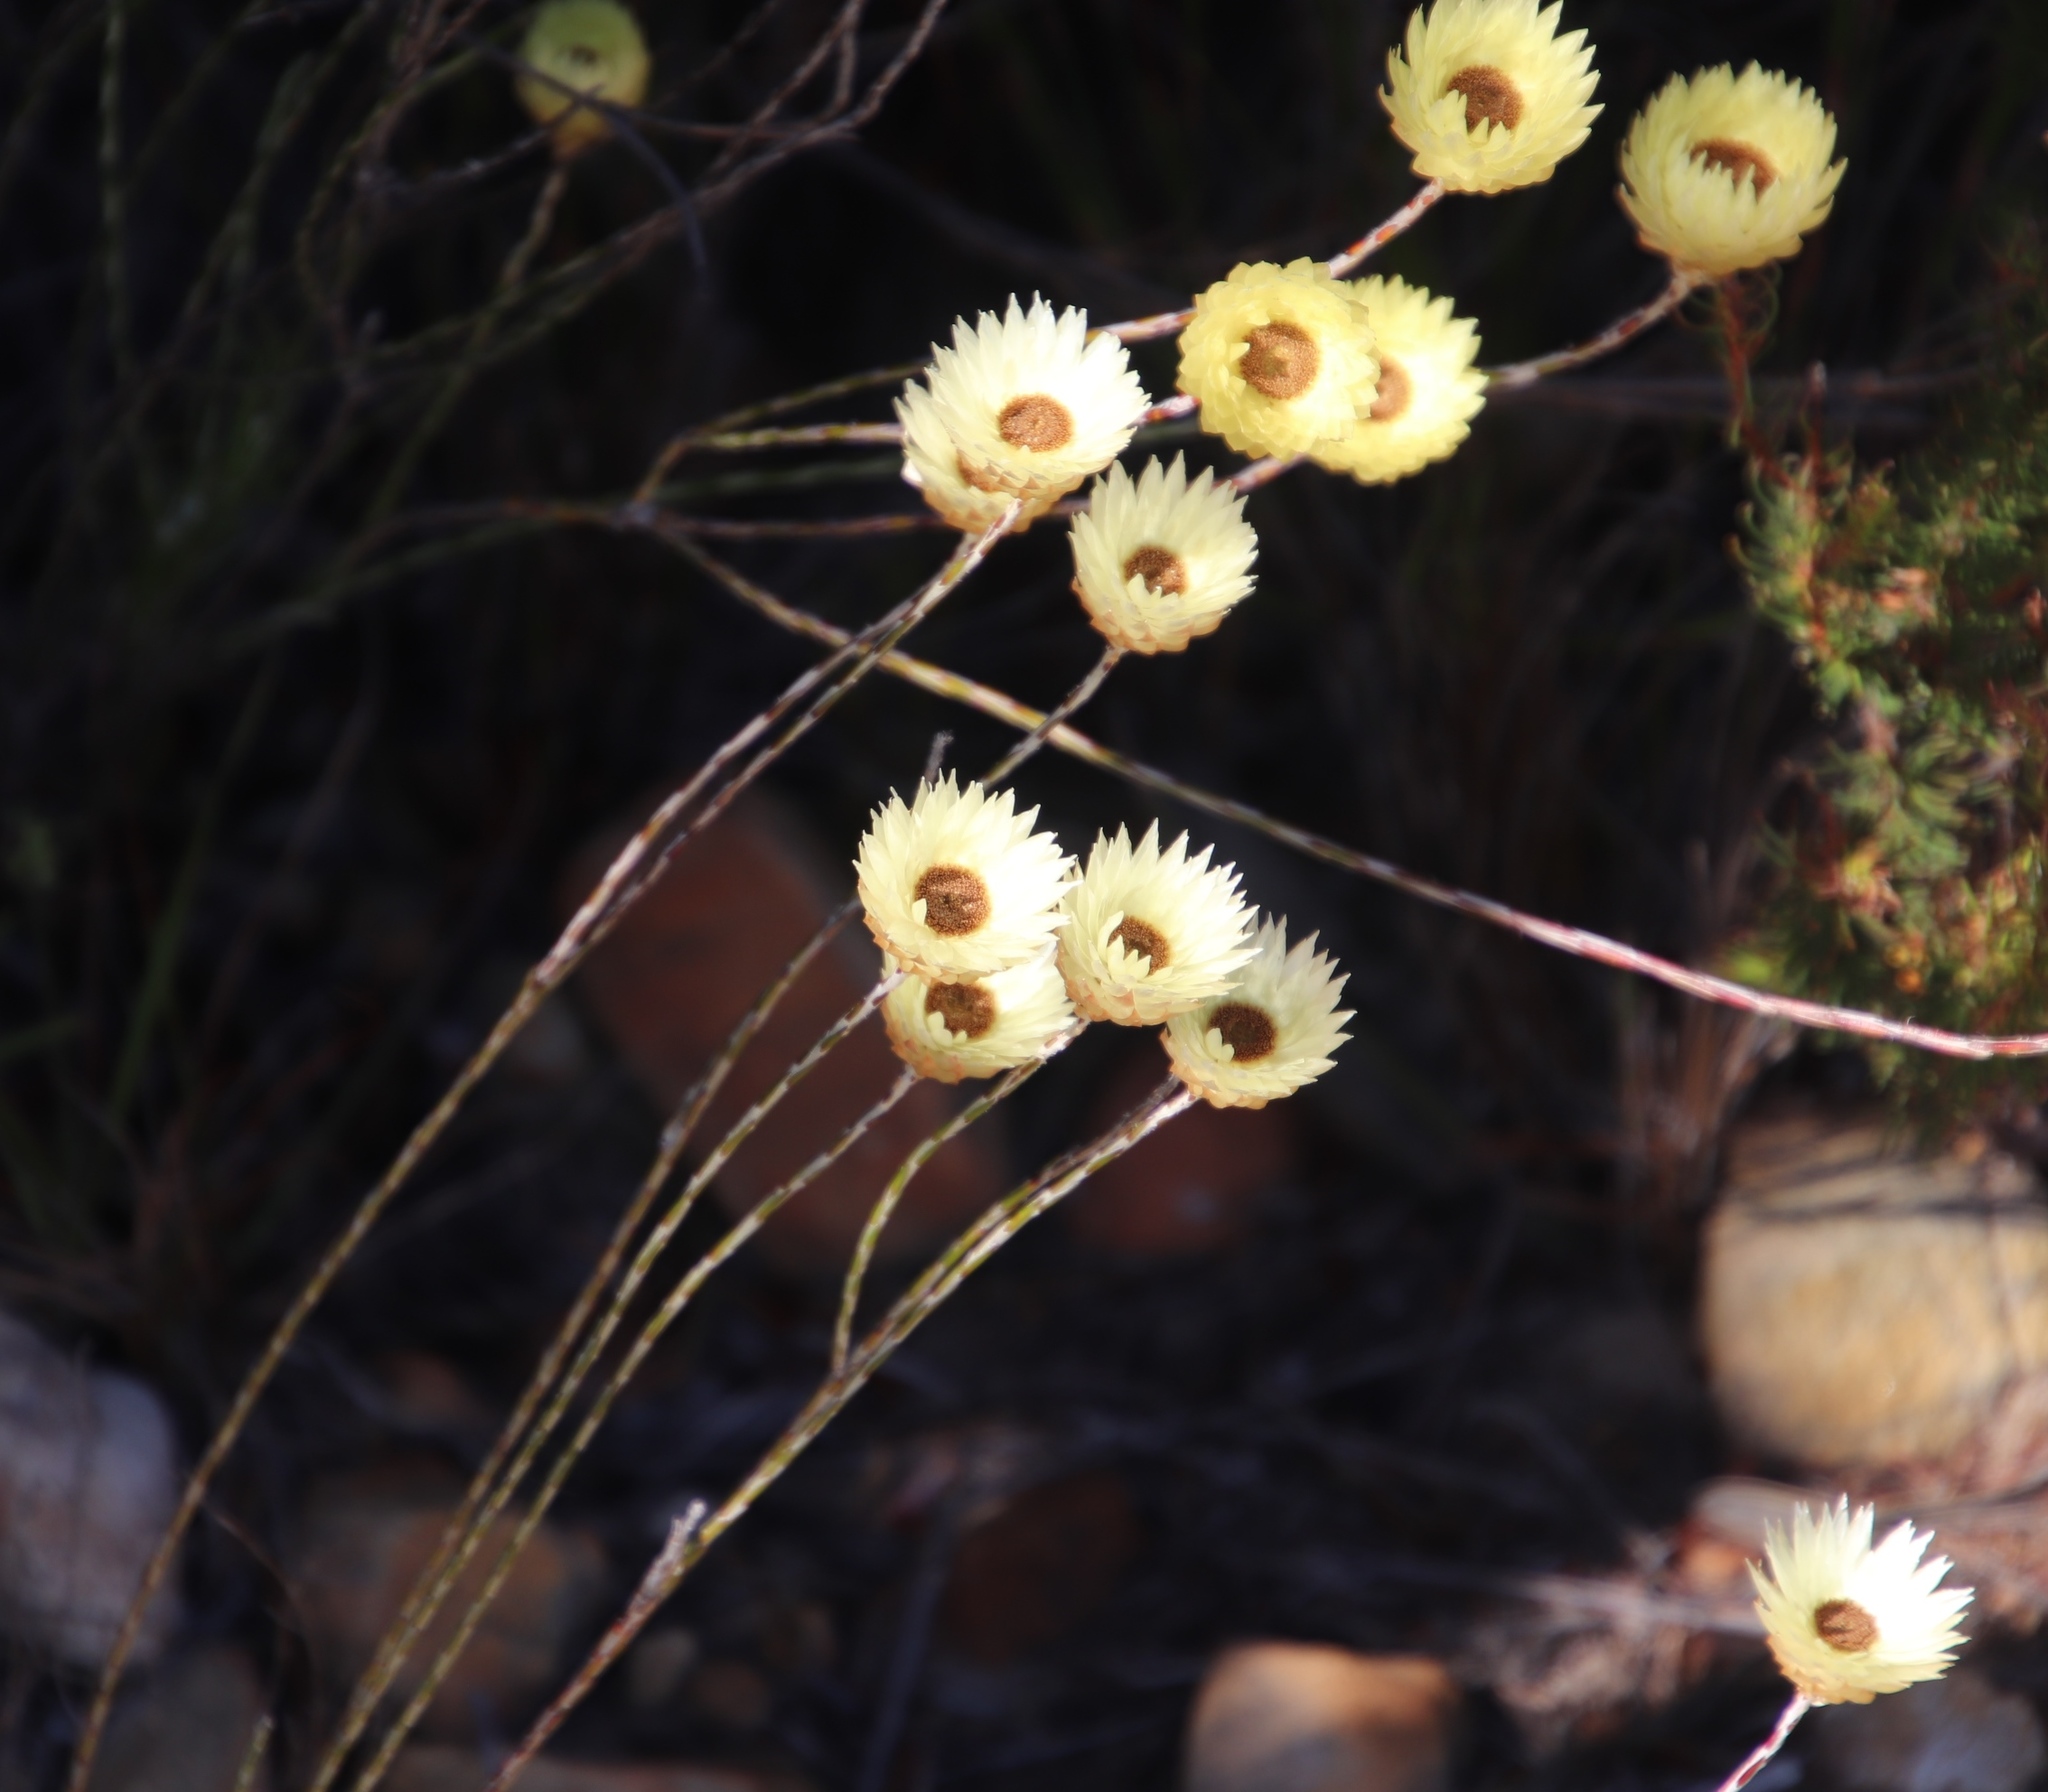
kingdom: Plantae
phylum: Tracheophyta
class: Magnoliopsida
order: Asterales
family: Asteraceae
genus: Edmondia
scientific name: Edmondia sesamoides
